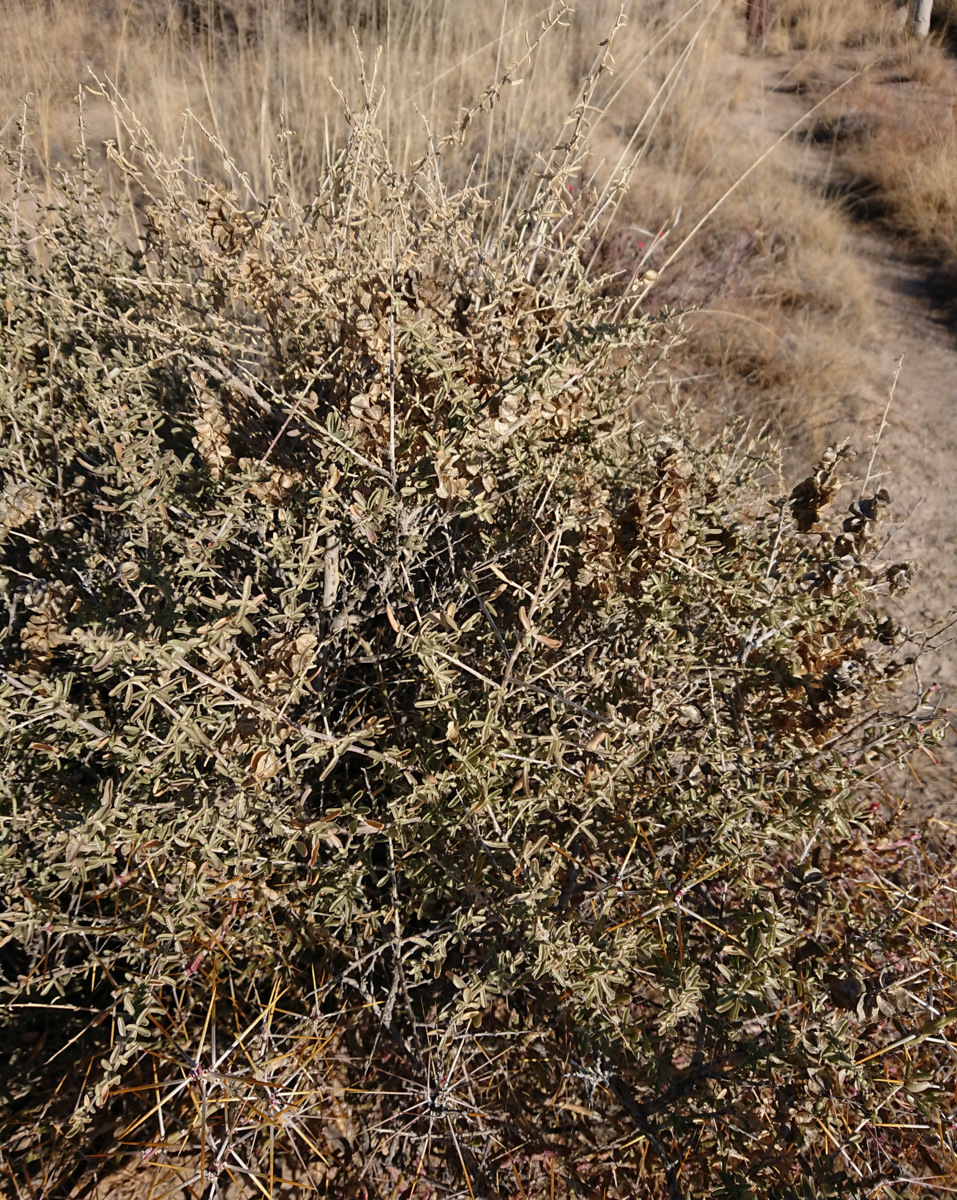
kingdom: Plantae
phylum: Tracheophyta
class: Magnoliopsida
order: Caryophyllales
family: Amaranthaceae
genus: Atriplex
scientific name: Atriplex canescens
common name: Four-wing saltbush
